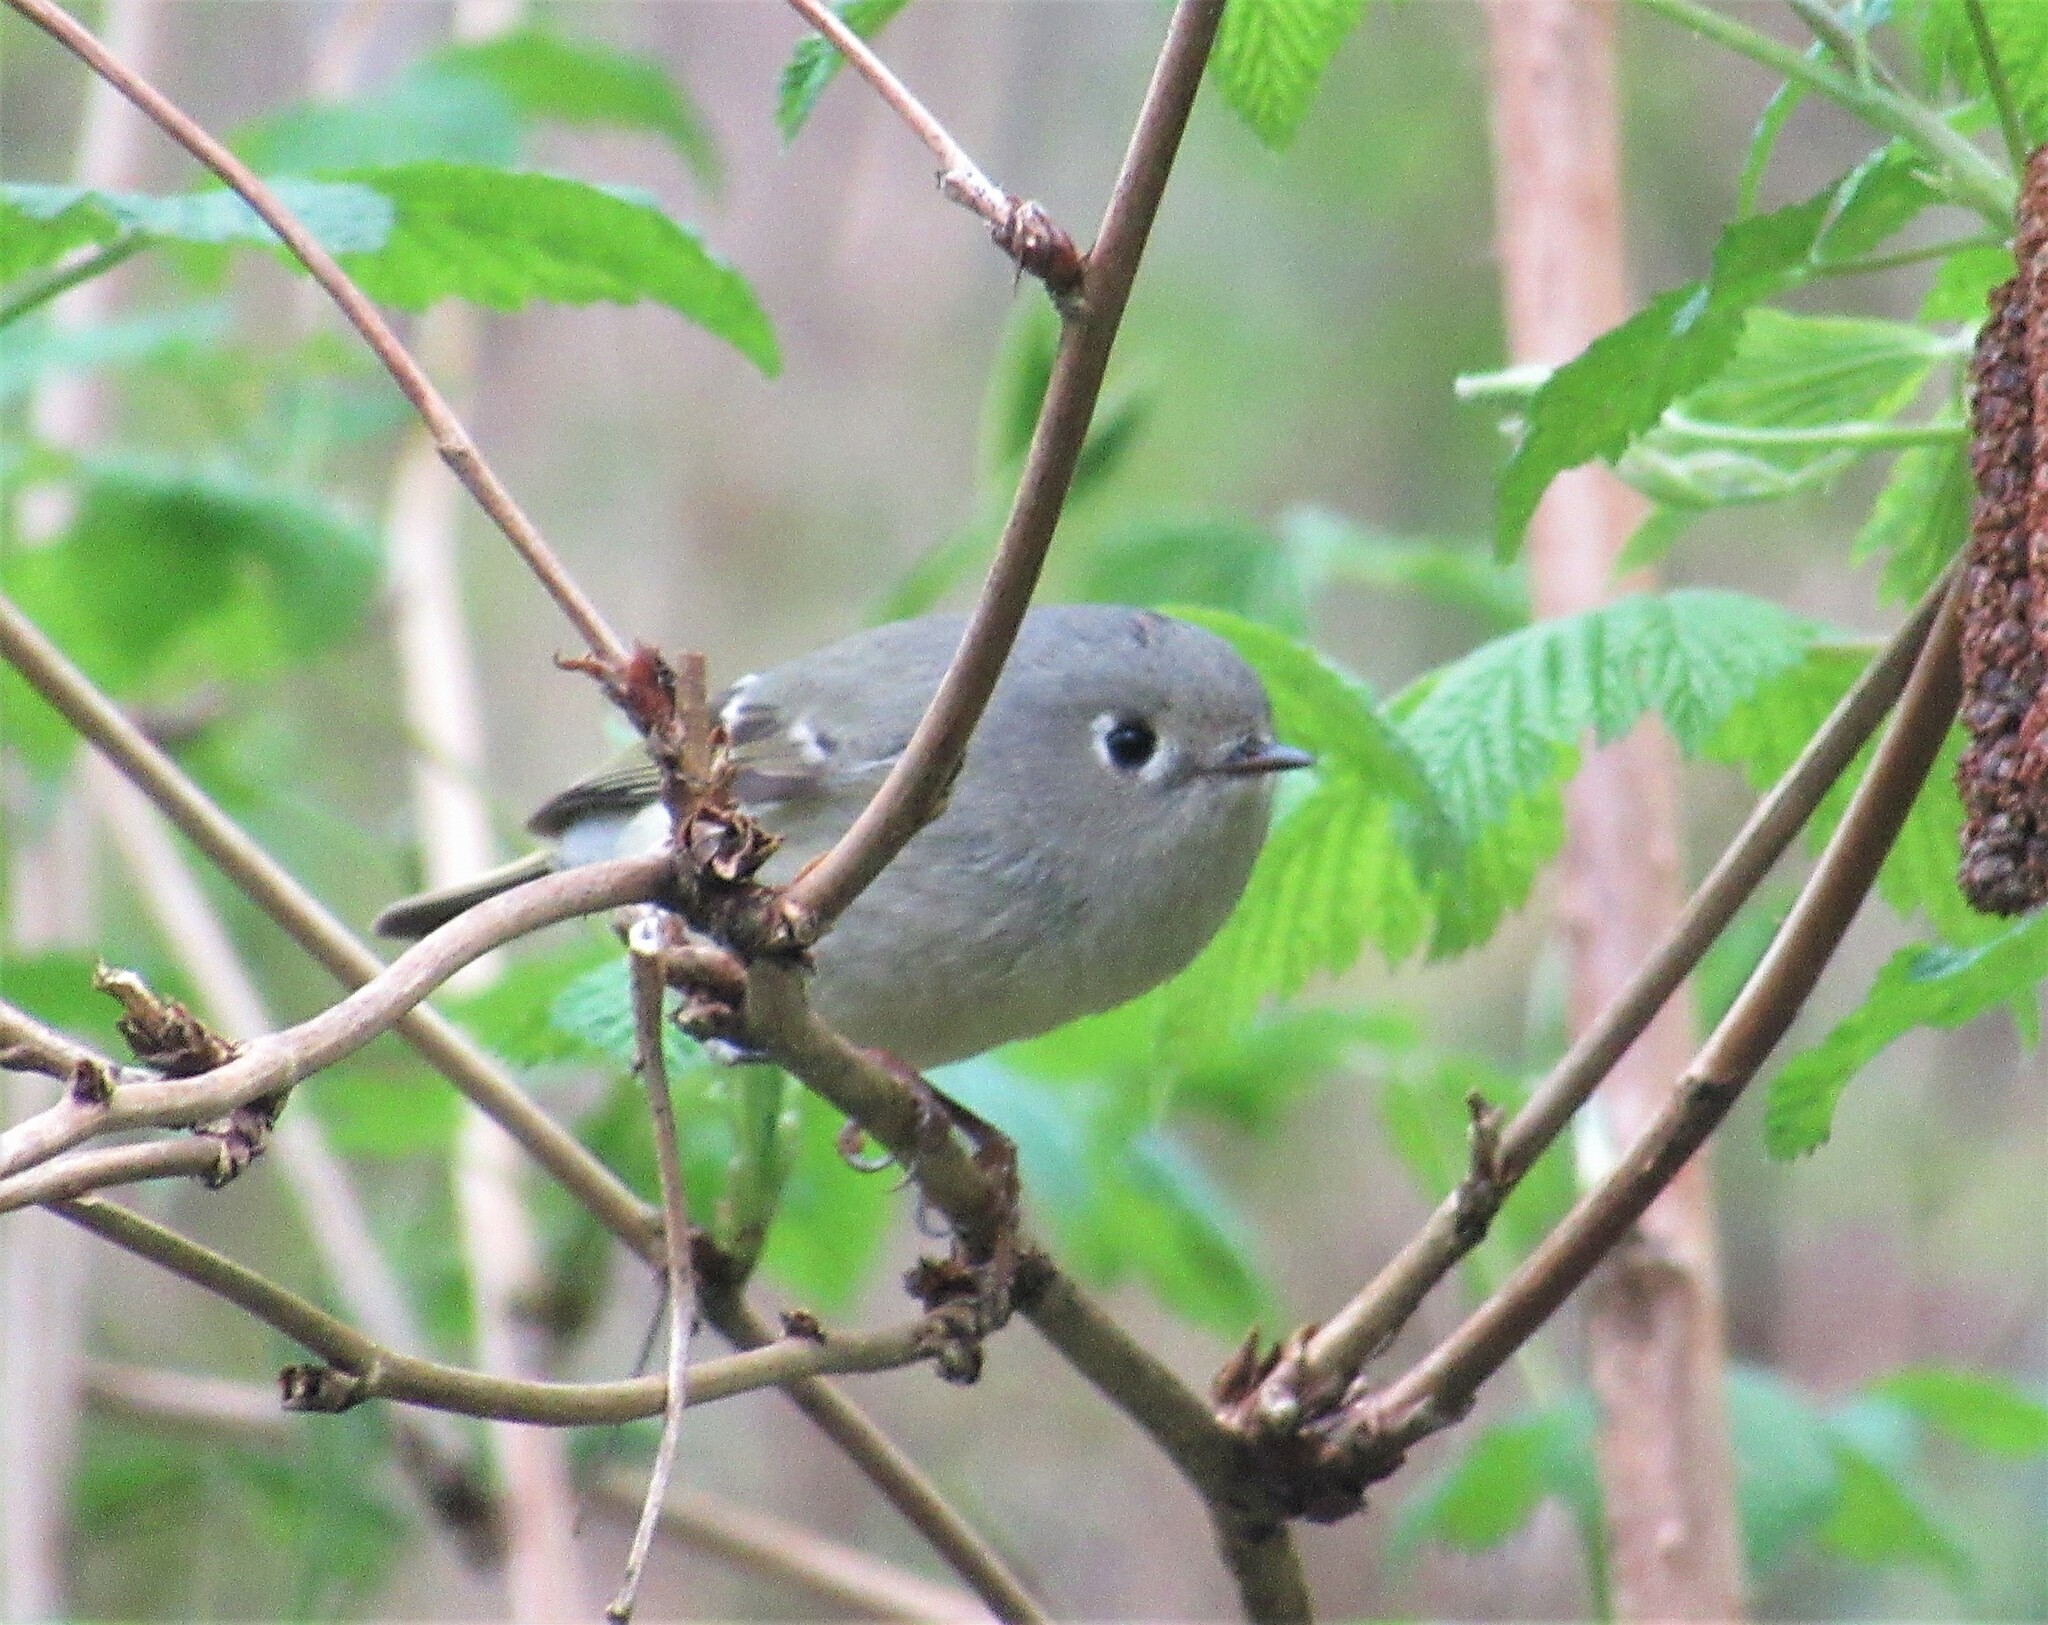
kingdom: Animalia
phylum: Chordata
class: Aves
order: Passeriformes
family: Regulidae
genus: Regulus
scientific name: Regulus calendula
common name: Ruby-crowned kinglet
